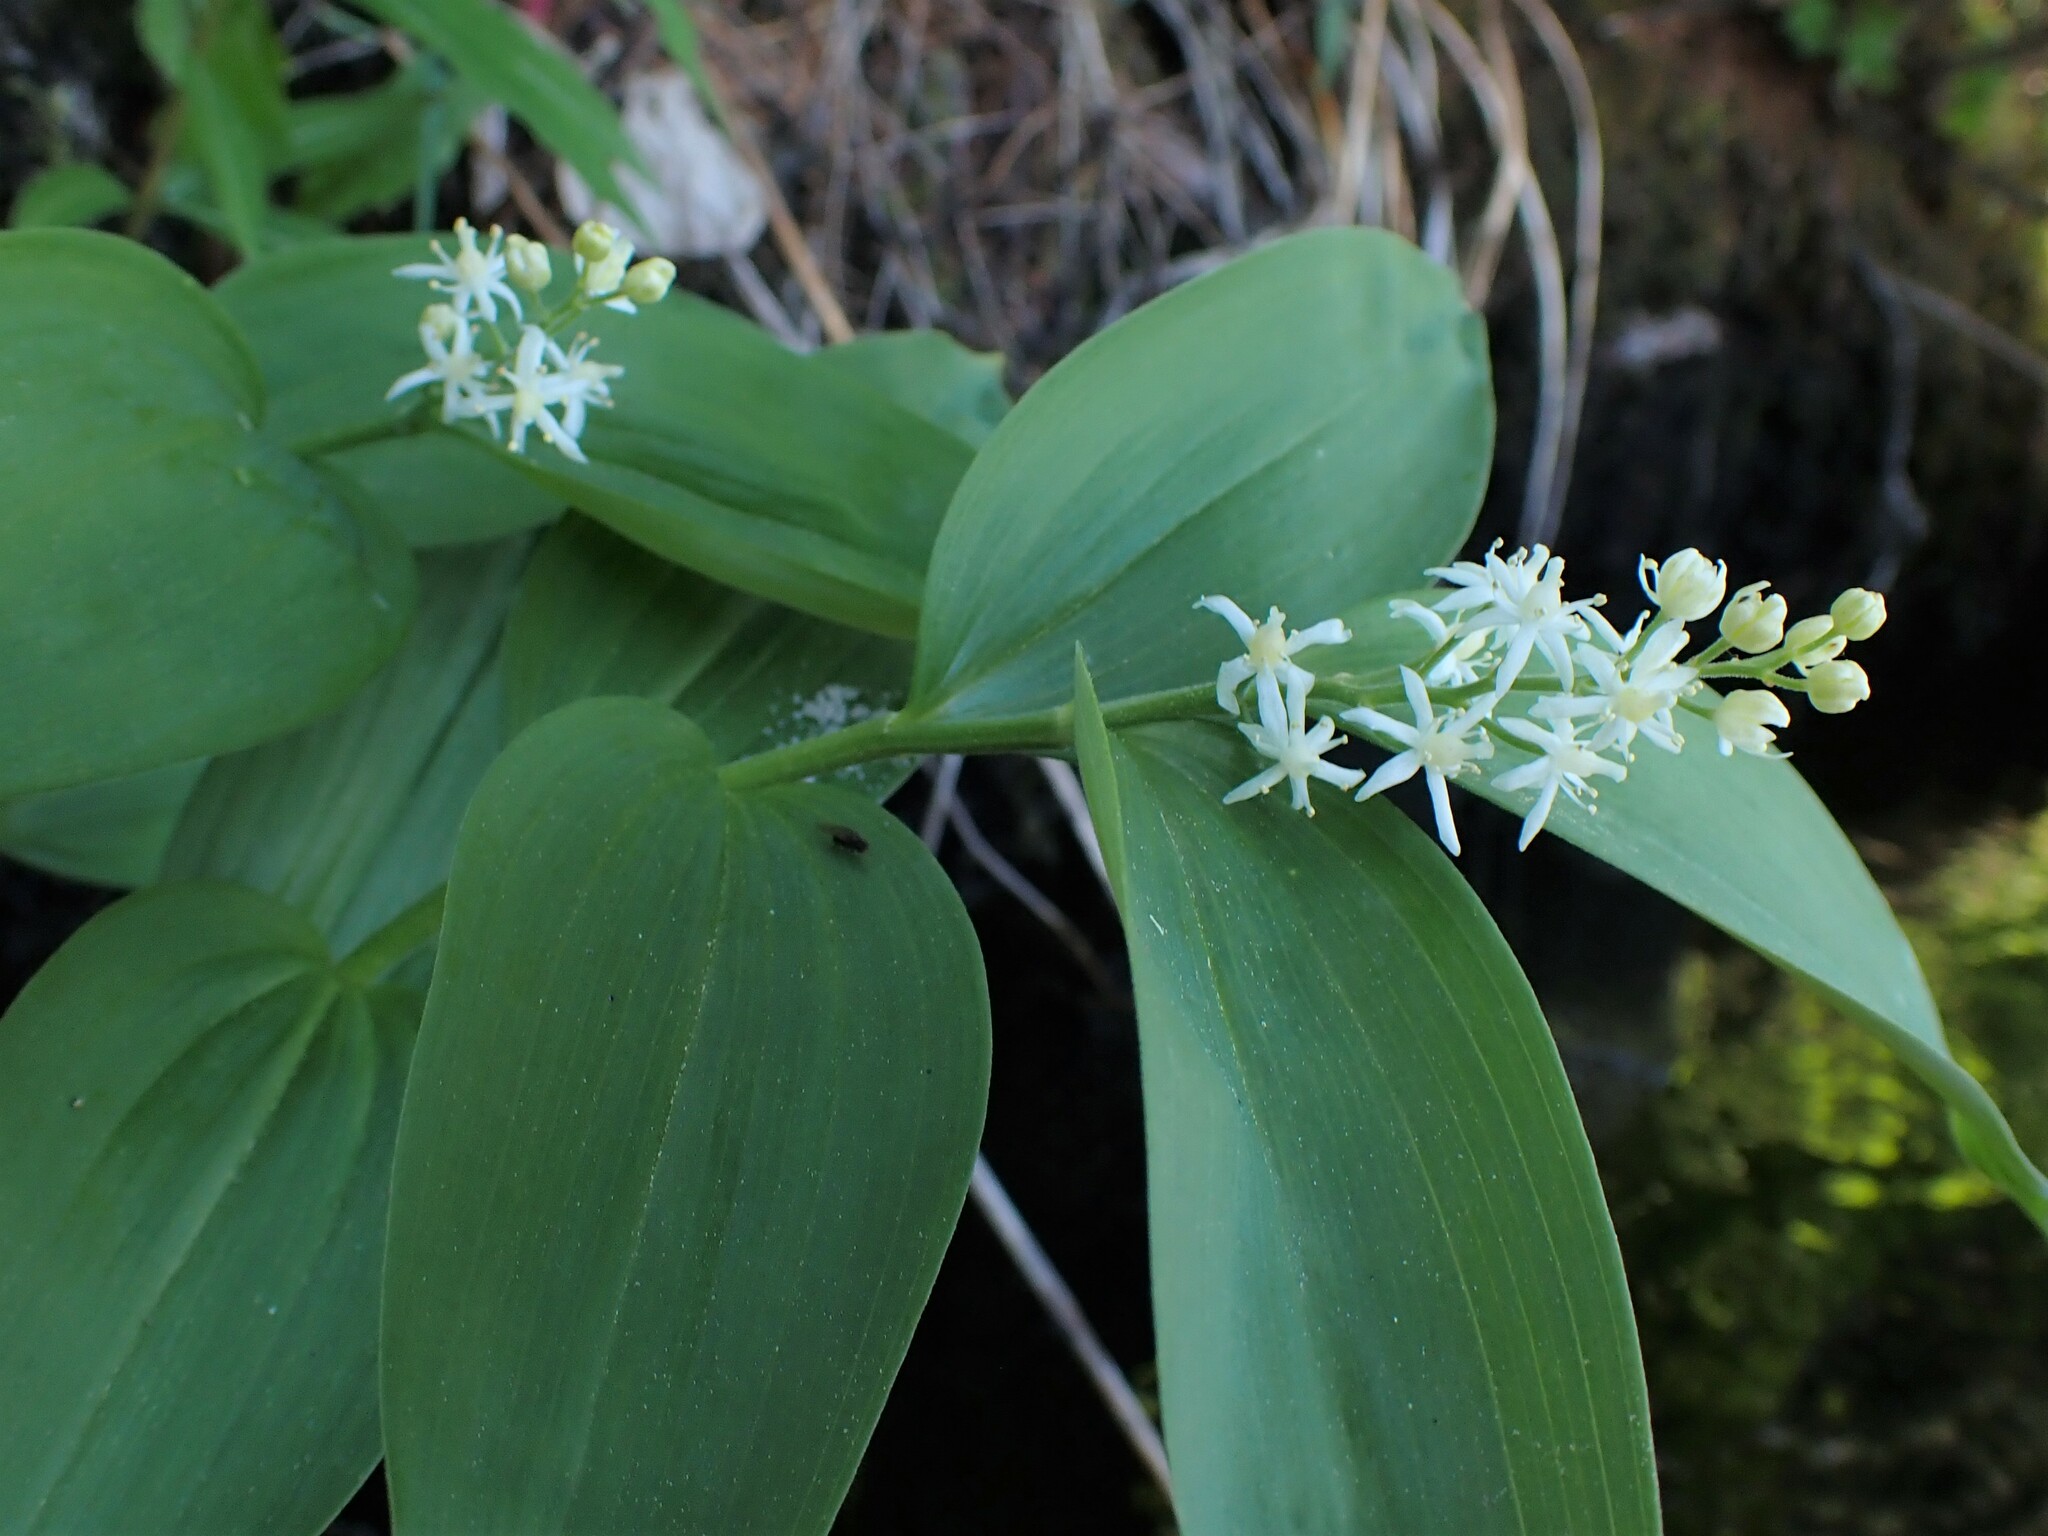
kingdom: Plantae
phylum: Tracheophyta
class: Liliopsida
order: Asparagales
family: Asparagaceae
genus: Maianthemum
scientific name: Maianthemum stellatum
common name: Little false solomon's seal
